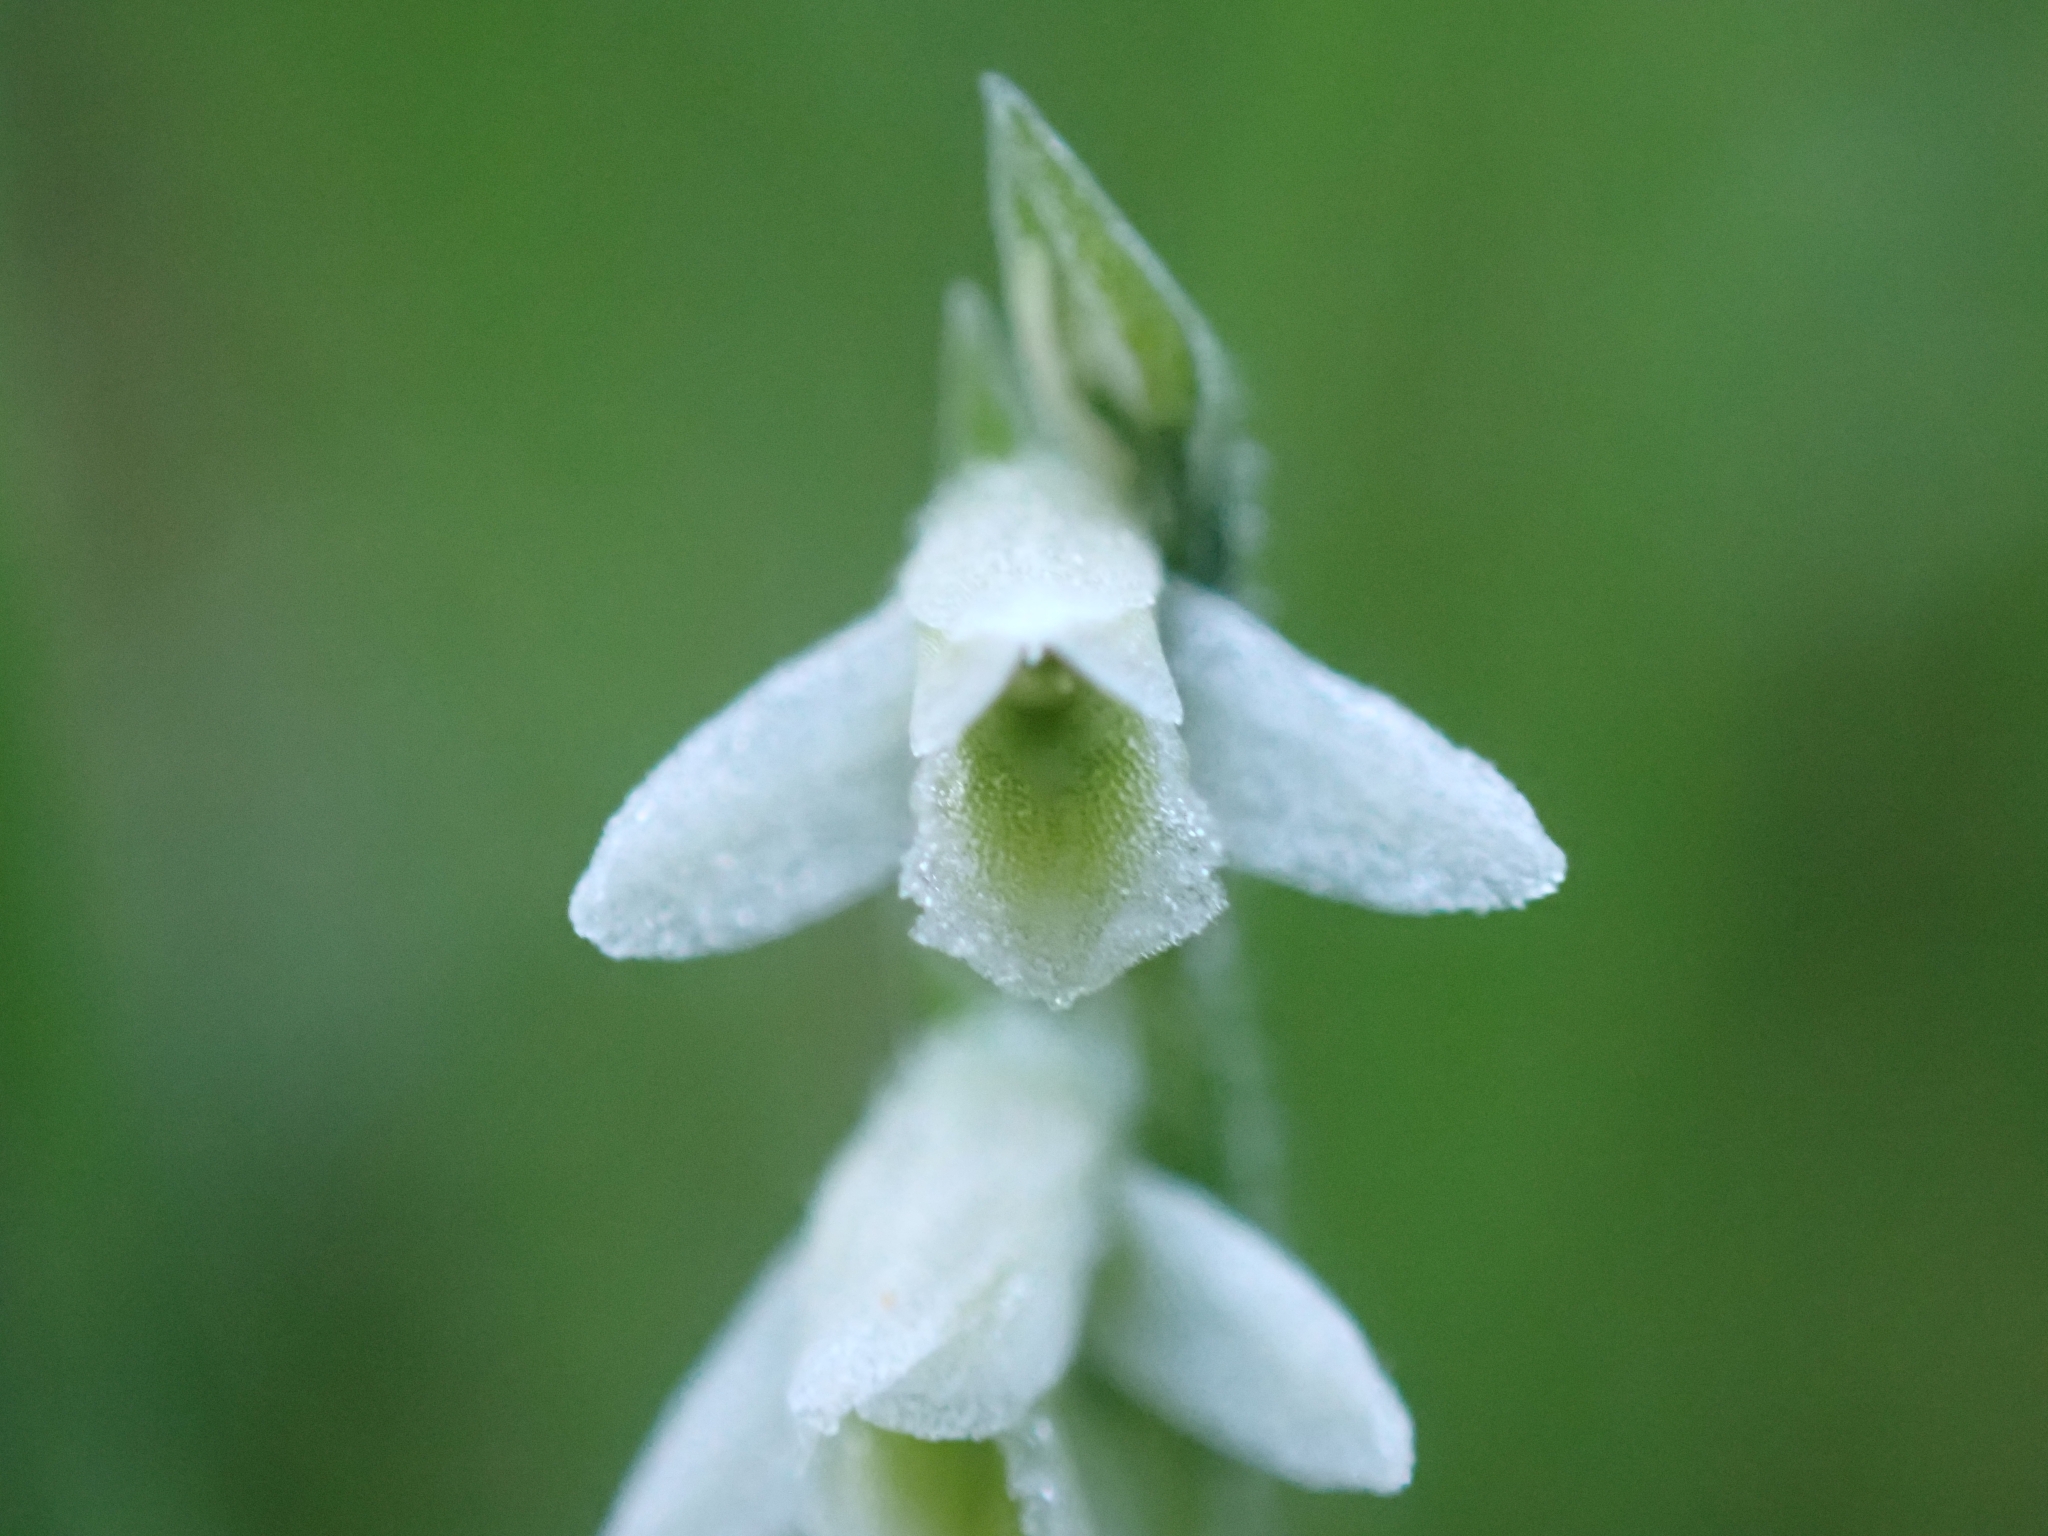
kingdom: Plantae
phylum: Tracheophyta
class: Liliopsida
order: Asparagales
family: Orchidaceae
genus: Spiranthes
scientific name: Spiranthes spiralis
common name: Autumn lady's-tresses
